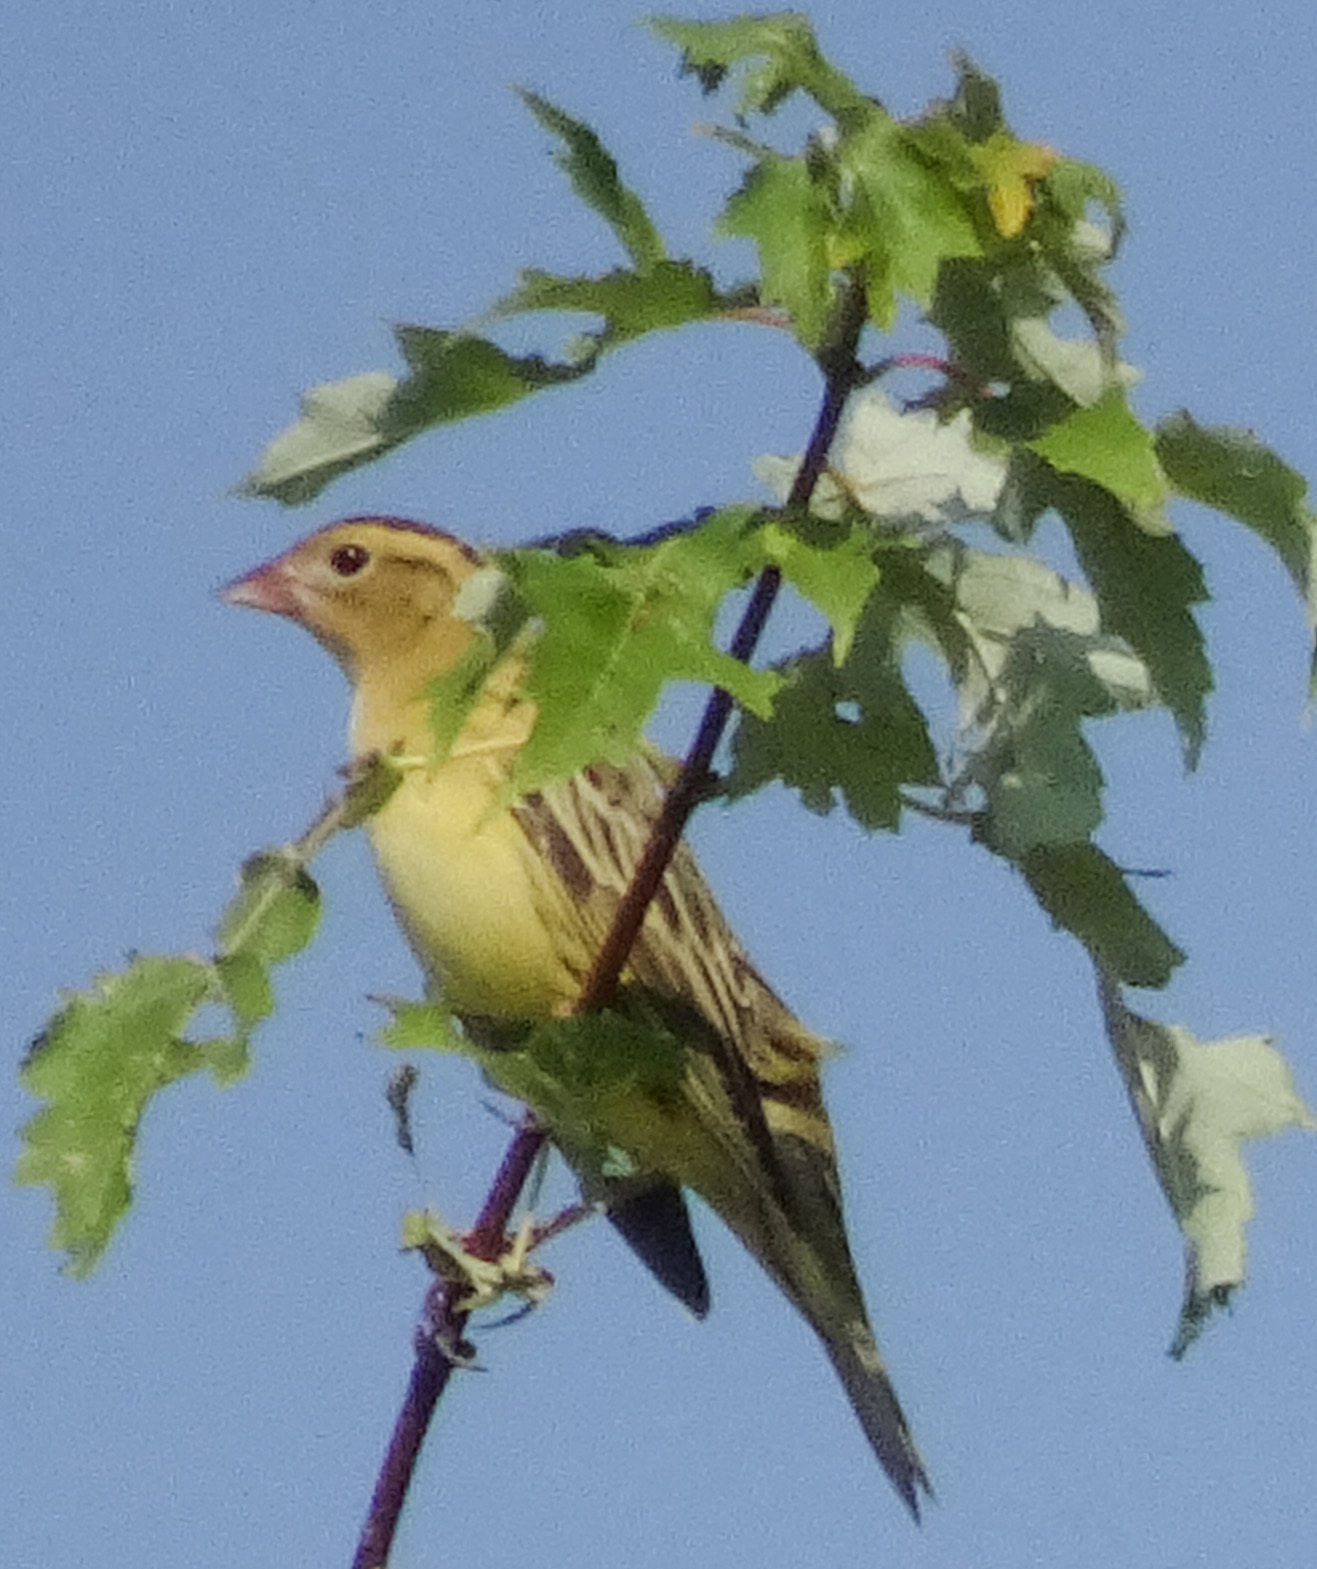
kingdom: Animalia
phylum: Chordata
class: Aves
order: Passeriformes
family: Icteridae
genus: Dolichonyx
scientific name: Dolichonyx oryzivorus
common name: Bobolink
